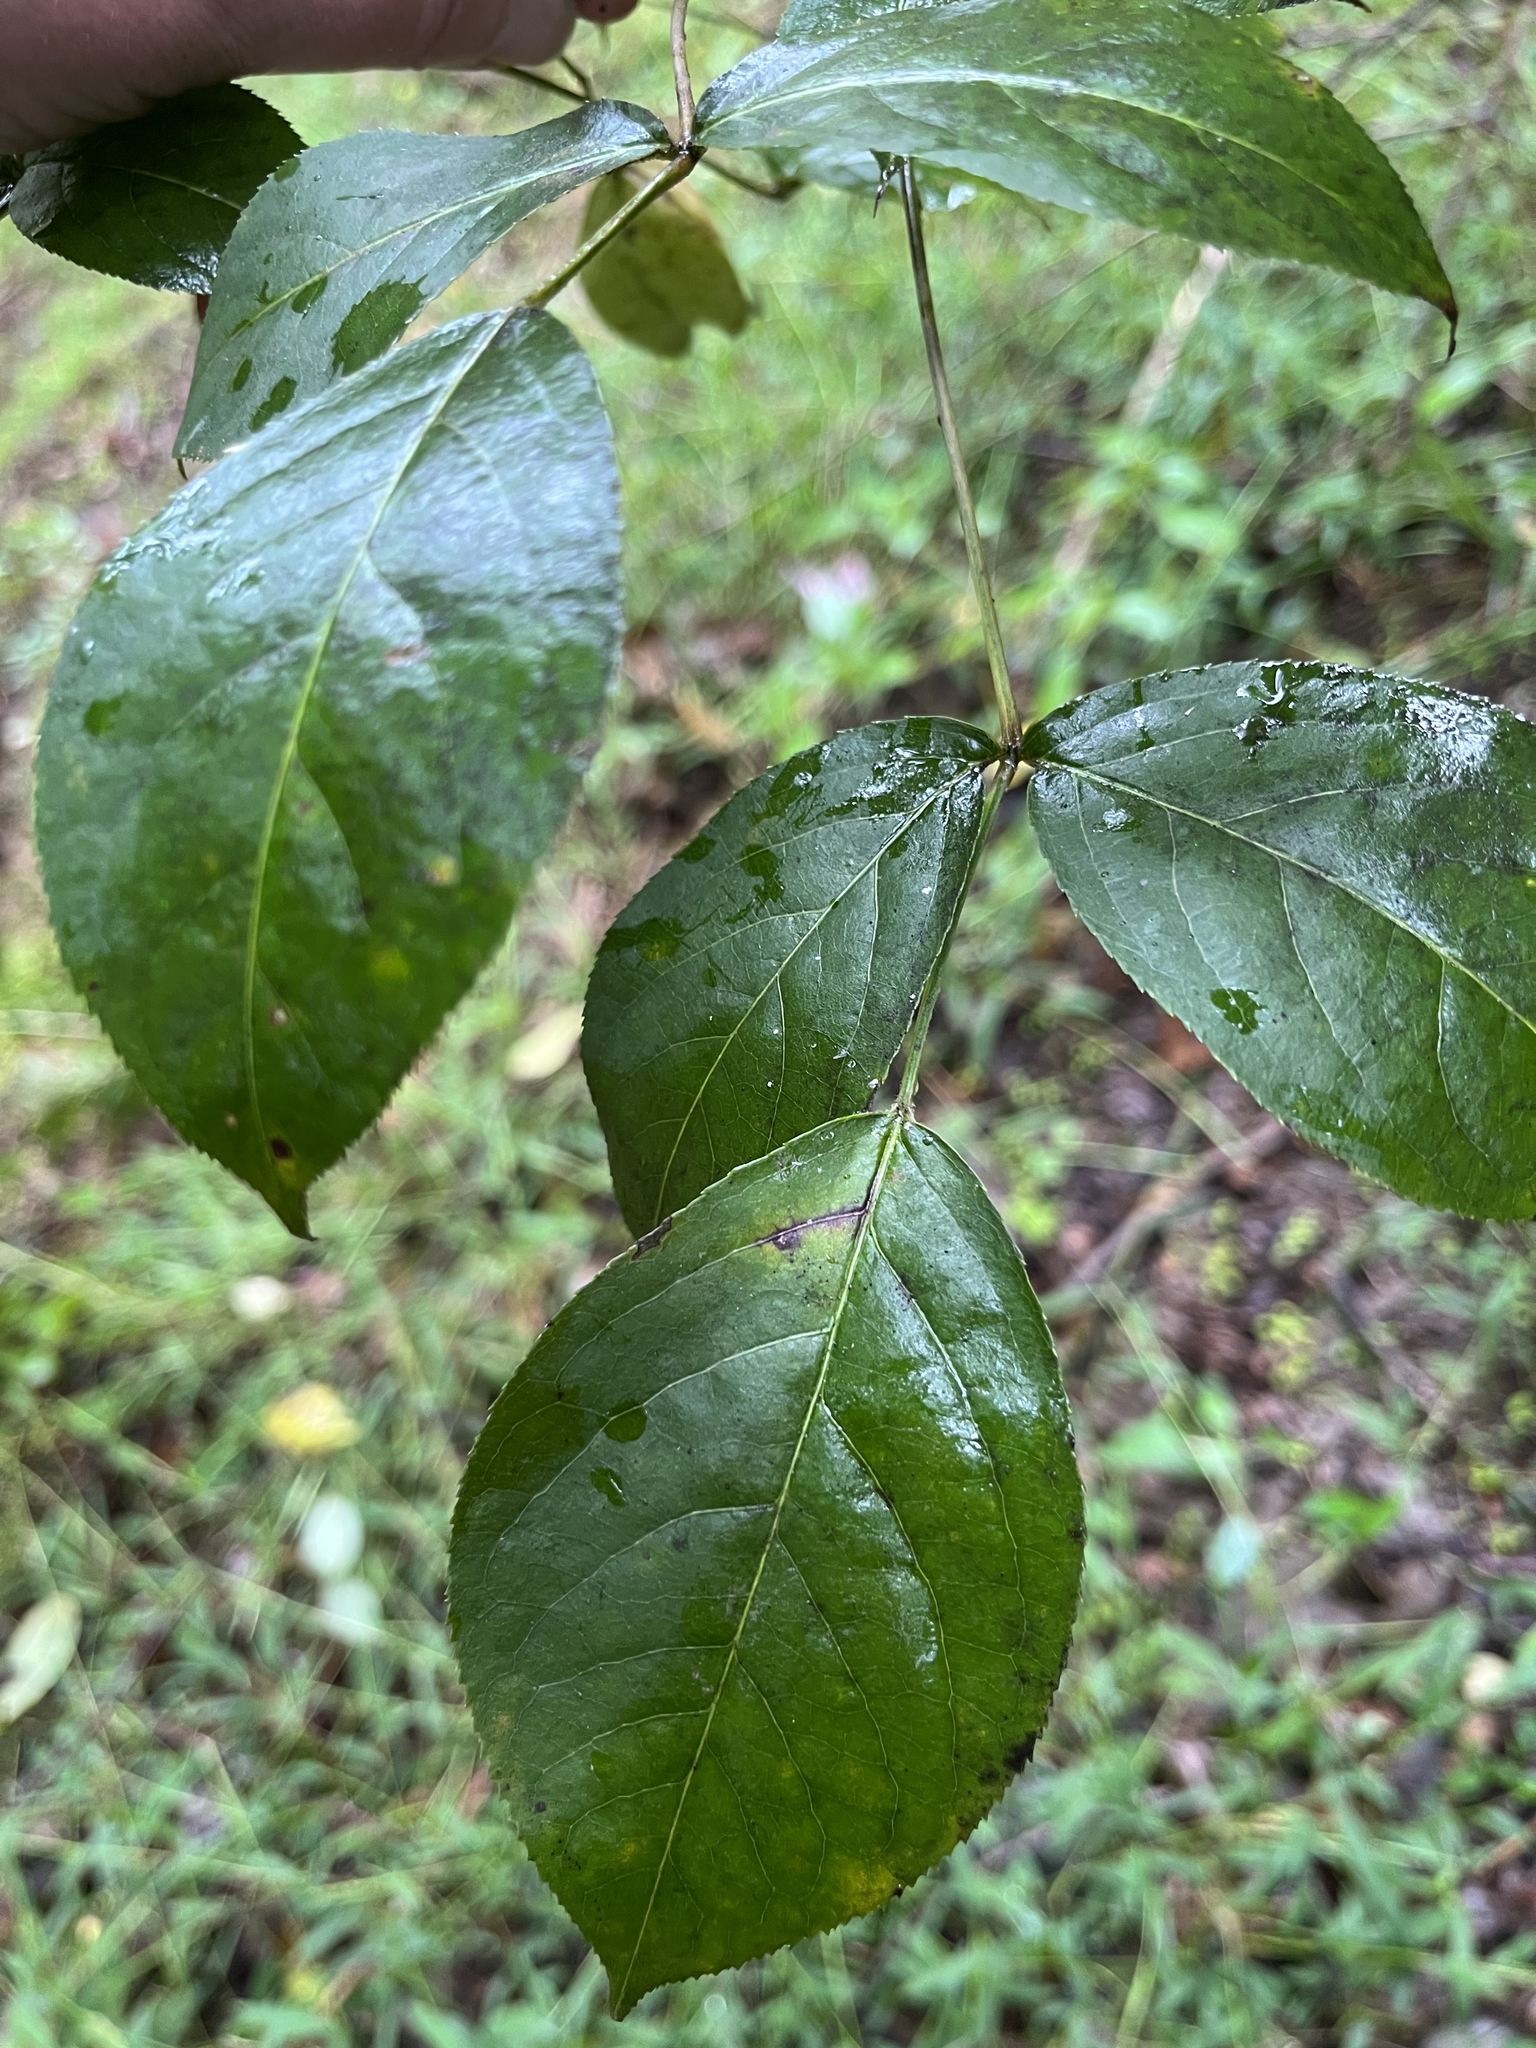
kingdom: Plantae
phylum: Tracheophyta
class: Magnoliopsida
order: Crossosomatales
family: Staphyleaceae
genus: Staphylea
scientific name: Staphylea trifolia
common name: American bladdernut
